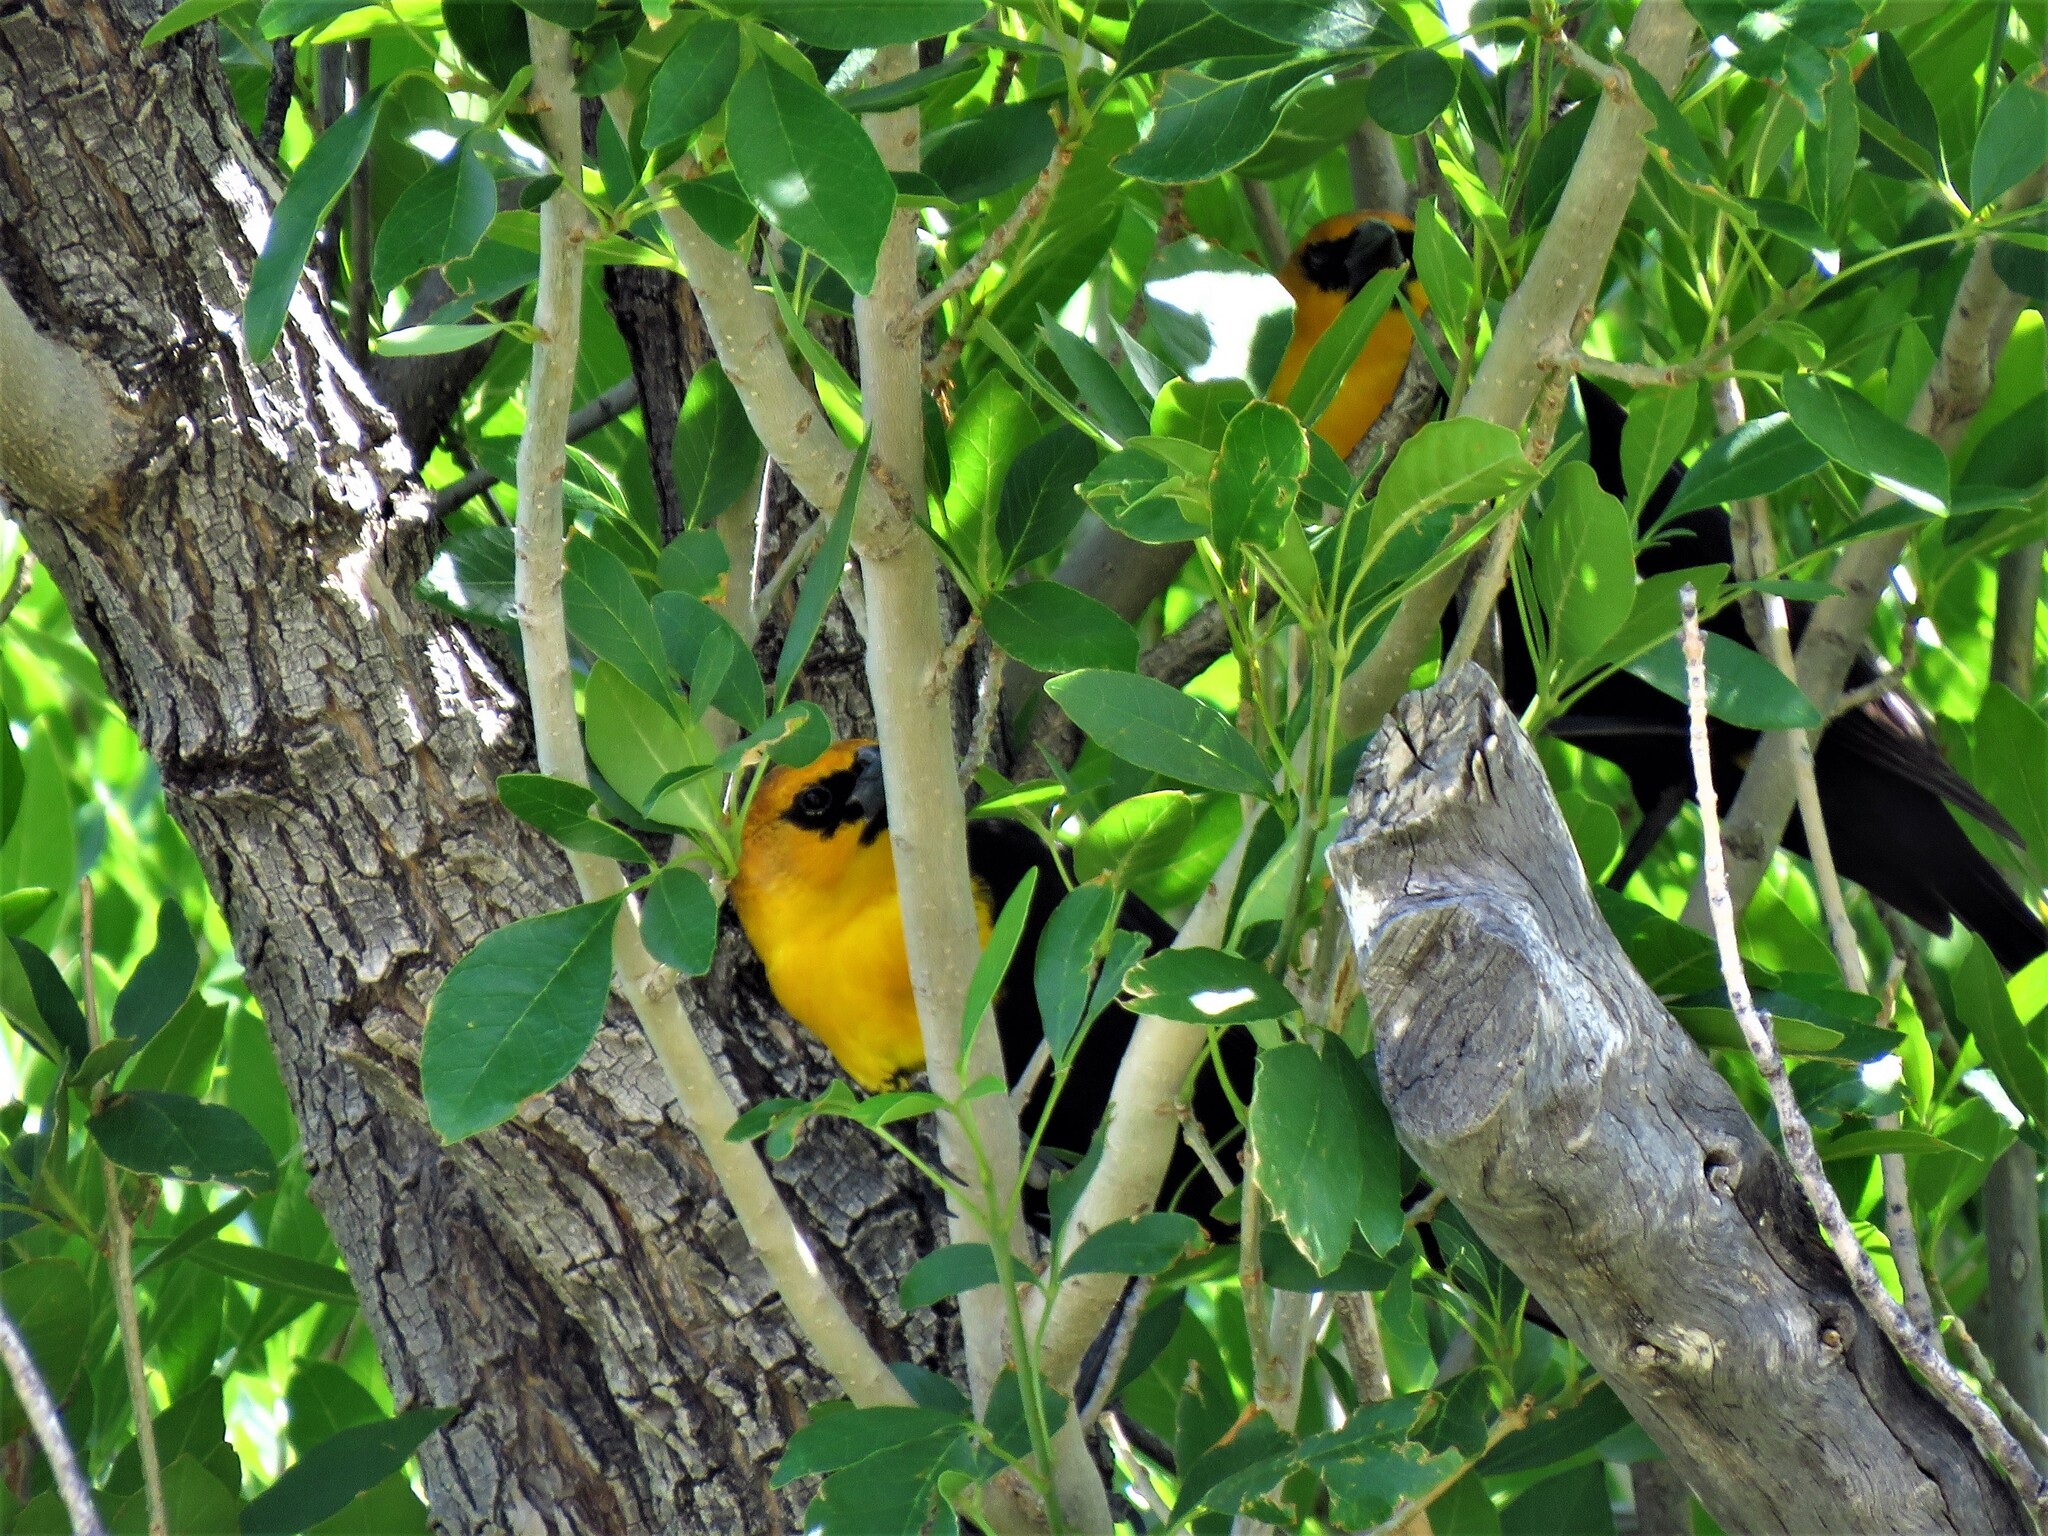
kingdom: Animalia
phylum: Chordata
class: Aves
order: Passeriformes
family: Icteridae
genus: Xanthocephalus
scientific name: Xanthocephalus xanthocephalus
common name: Yellow-headed blackbird
